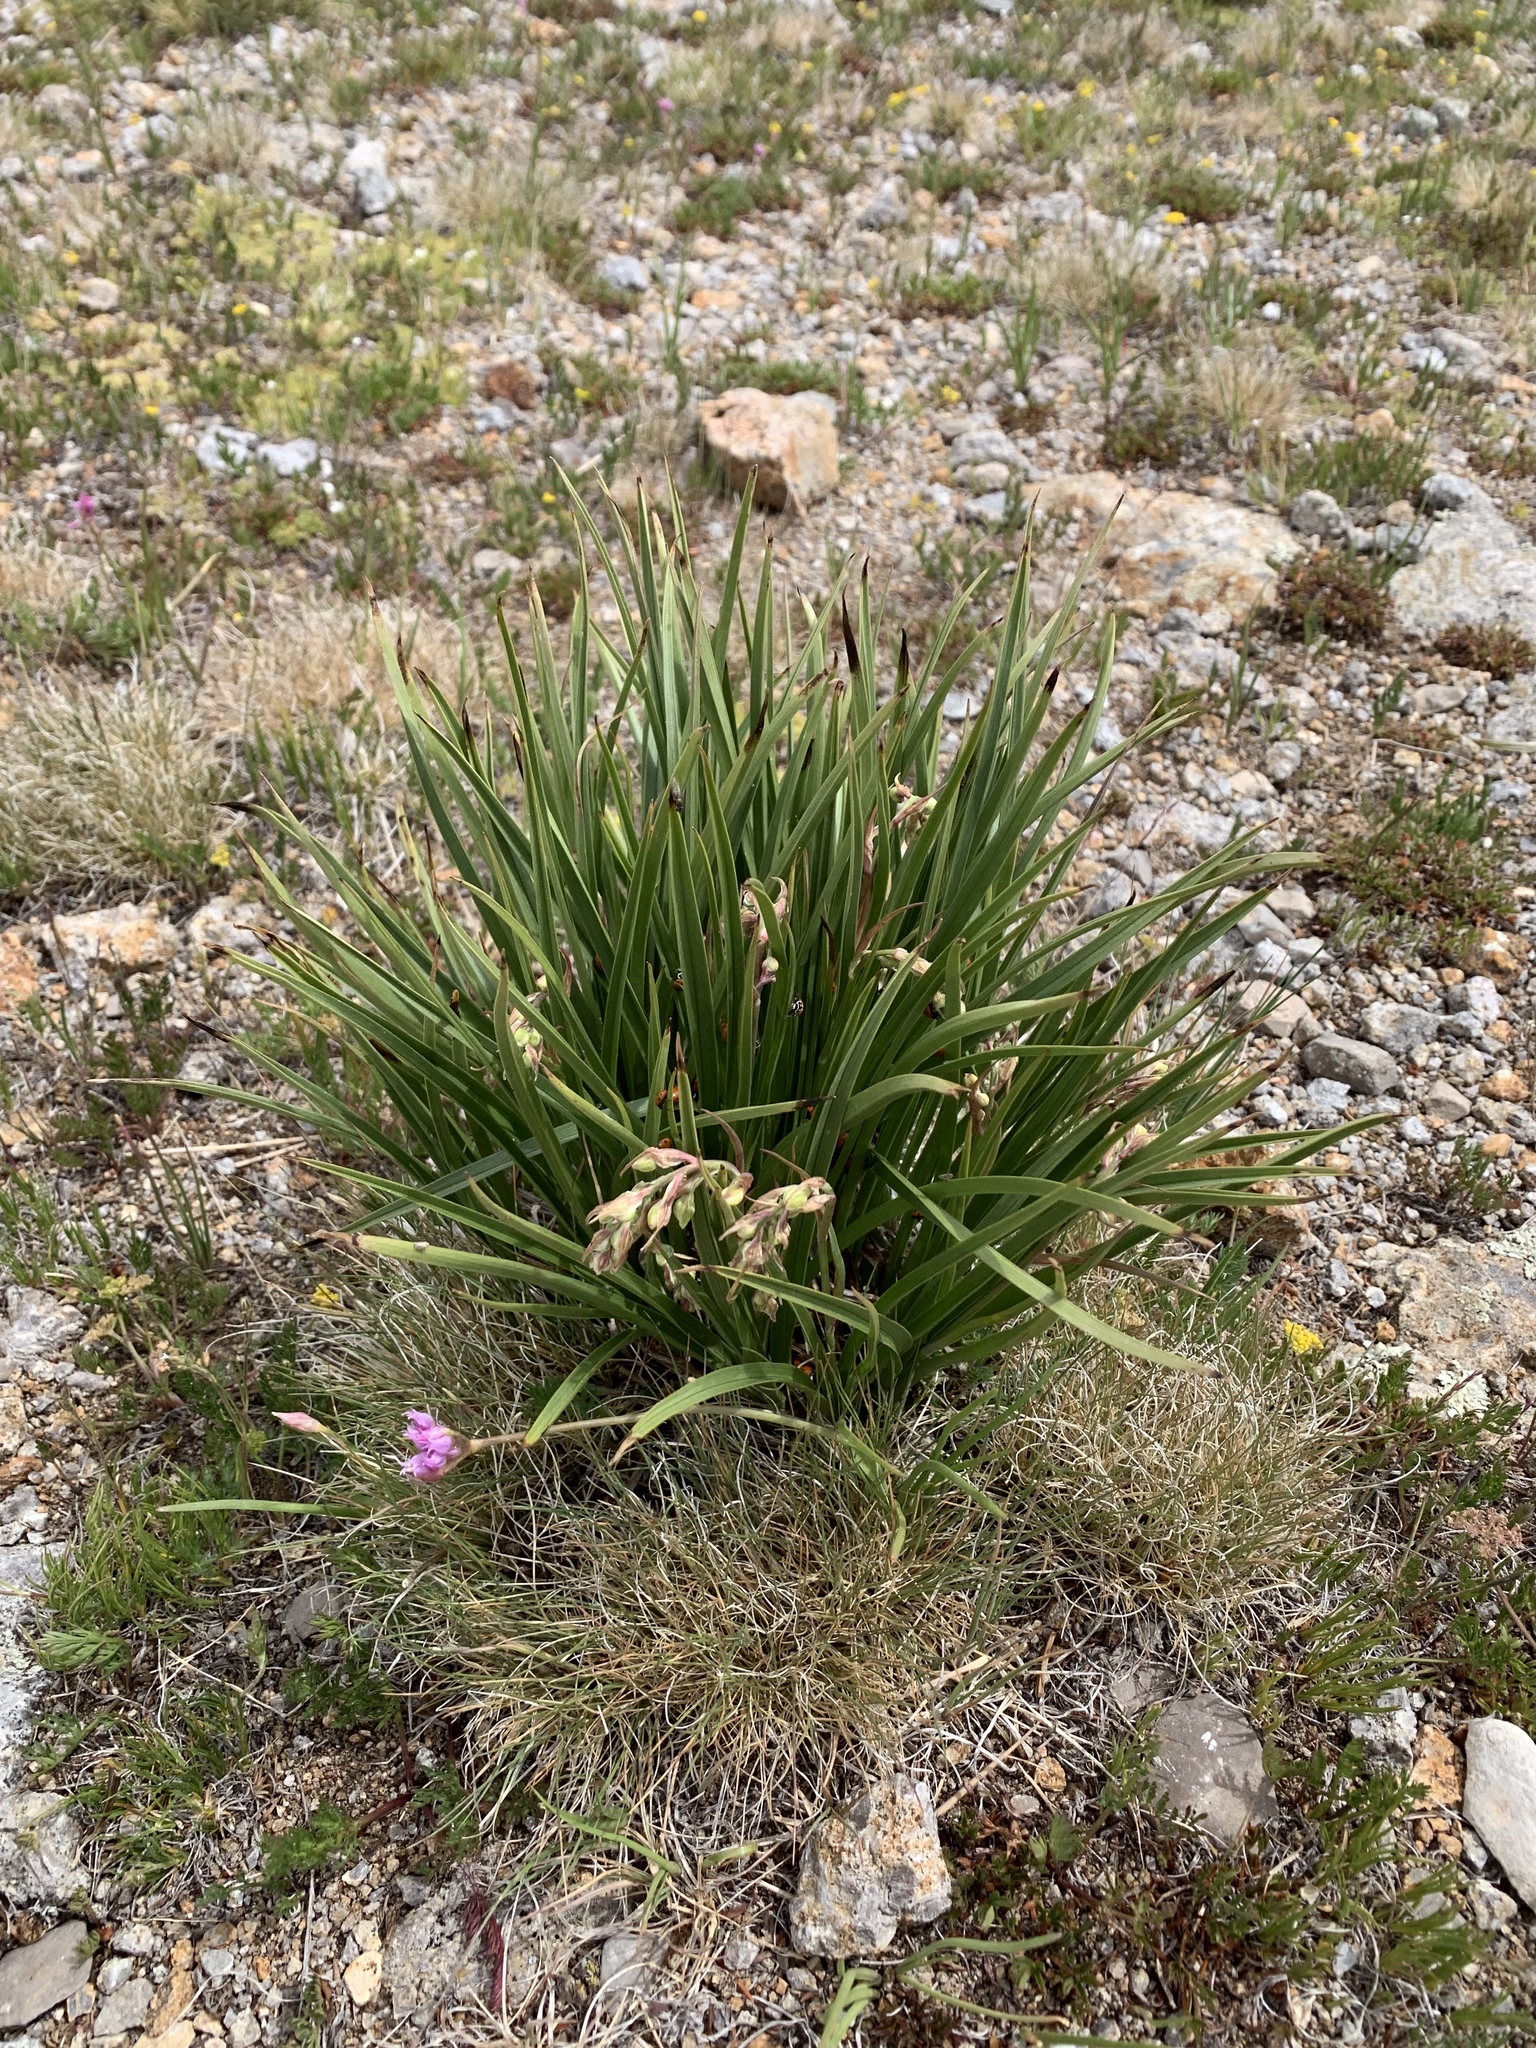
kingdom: Plantae
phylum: Tracheophyta
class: Liliopsida
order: Asparagales
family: Iridaceae
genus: Iris
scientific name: Iris missouriensis
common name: Rocky mountain iris
